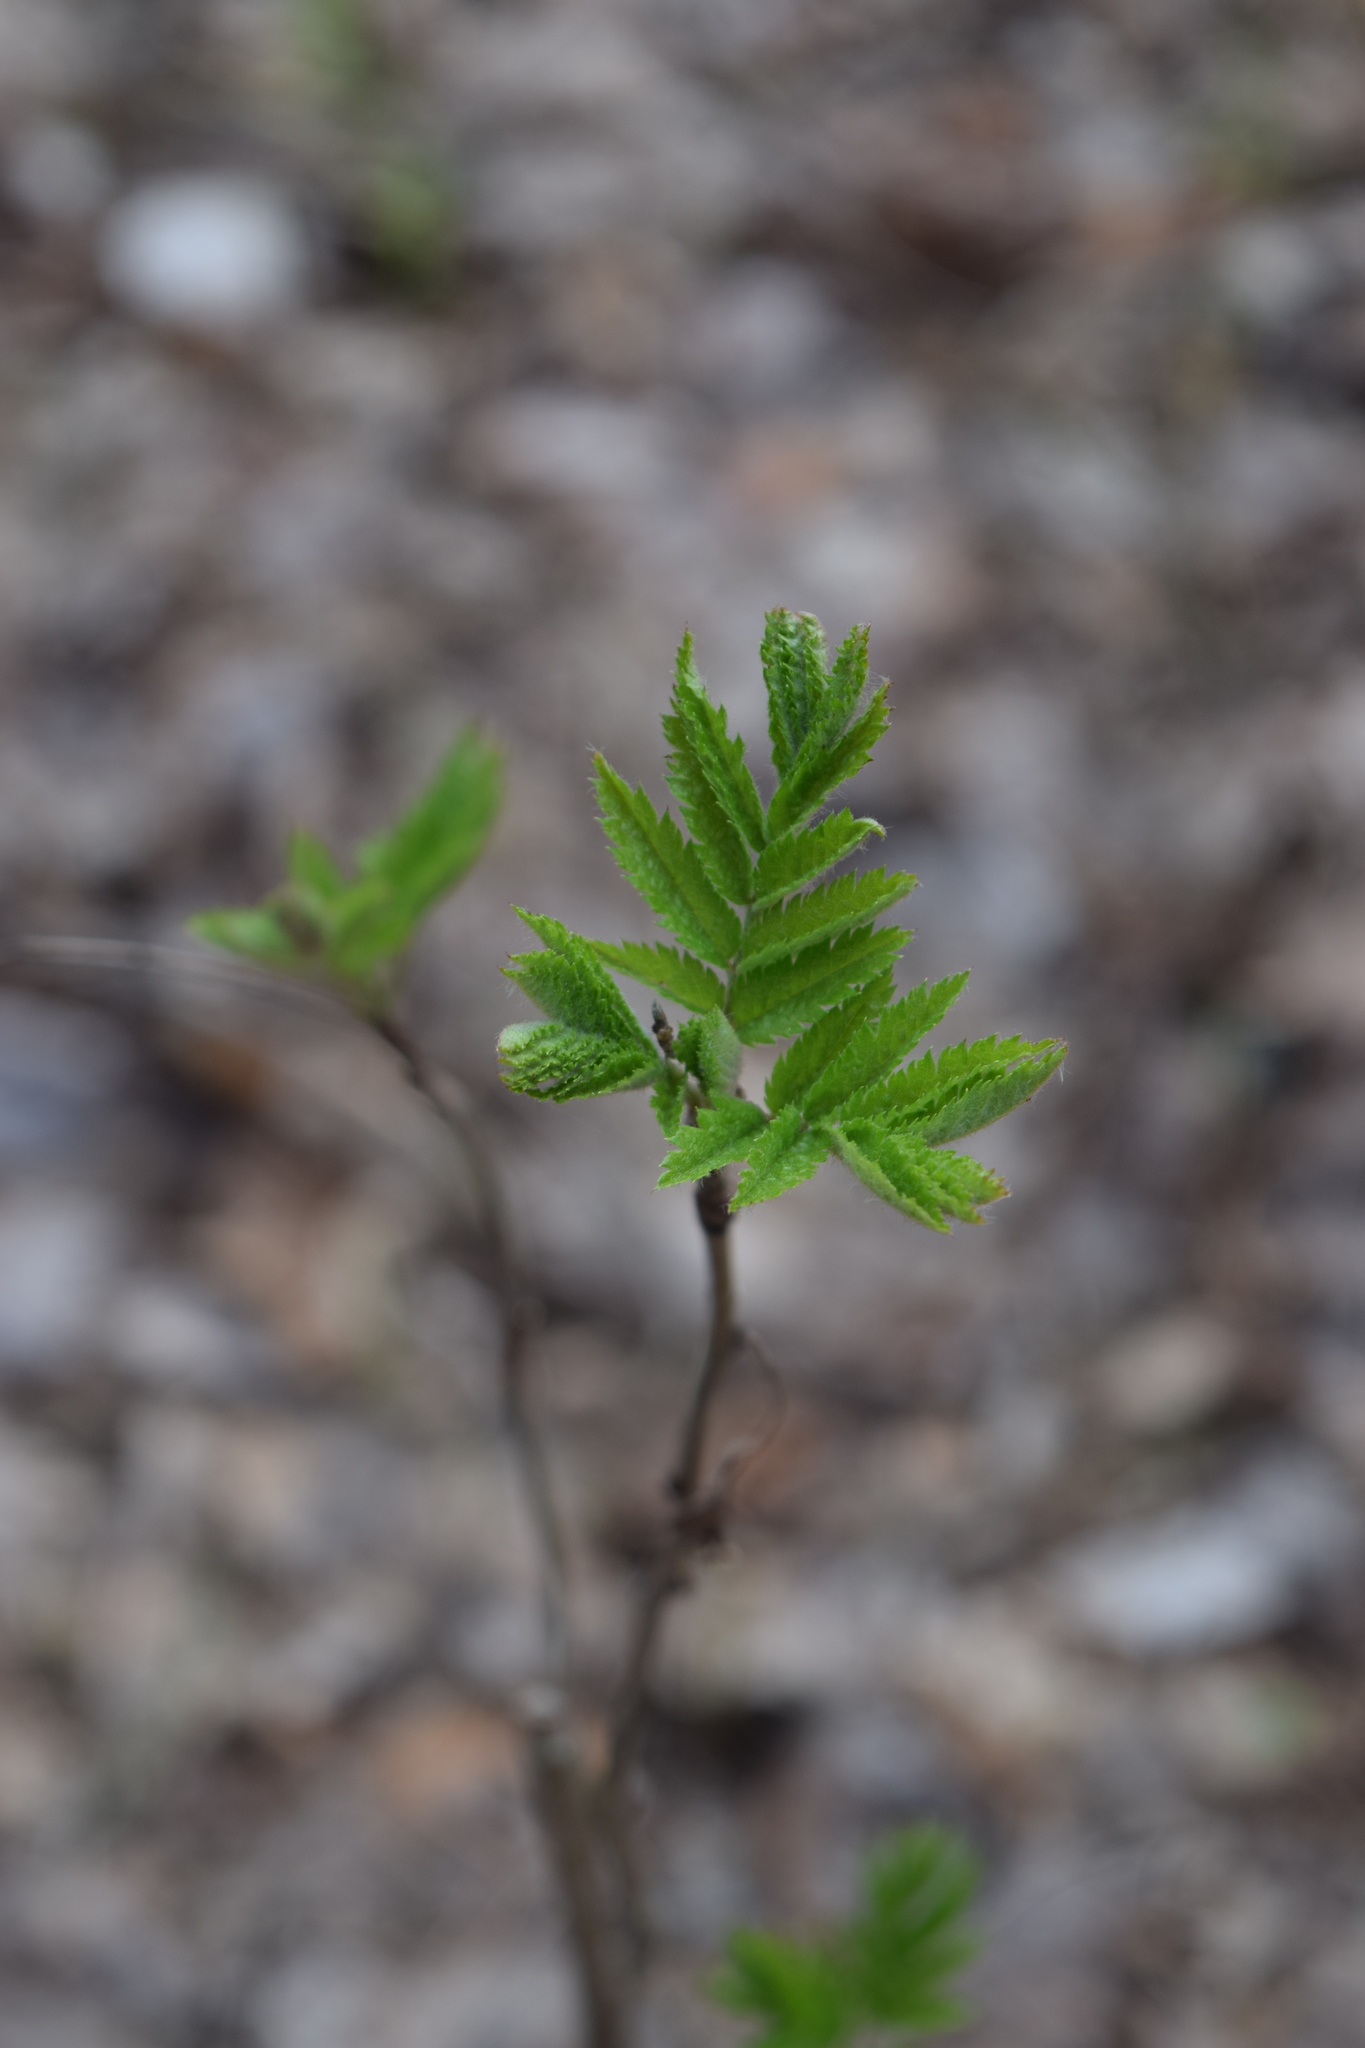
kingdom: Plantae
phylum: Tracheophyta
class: Magnoliopsida
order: Rosales
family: Rosaceae
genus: Sorbus
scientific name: Sorbus aucuparia
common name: Rowan
